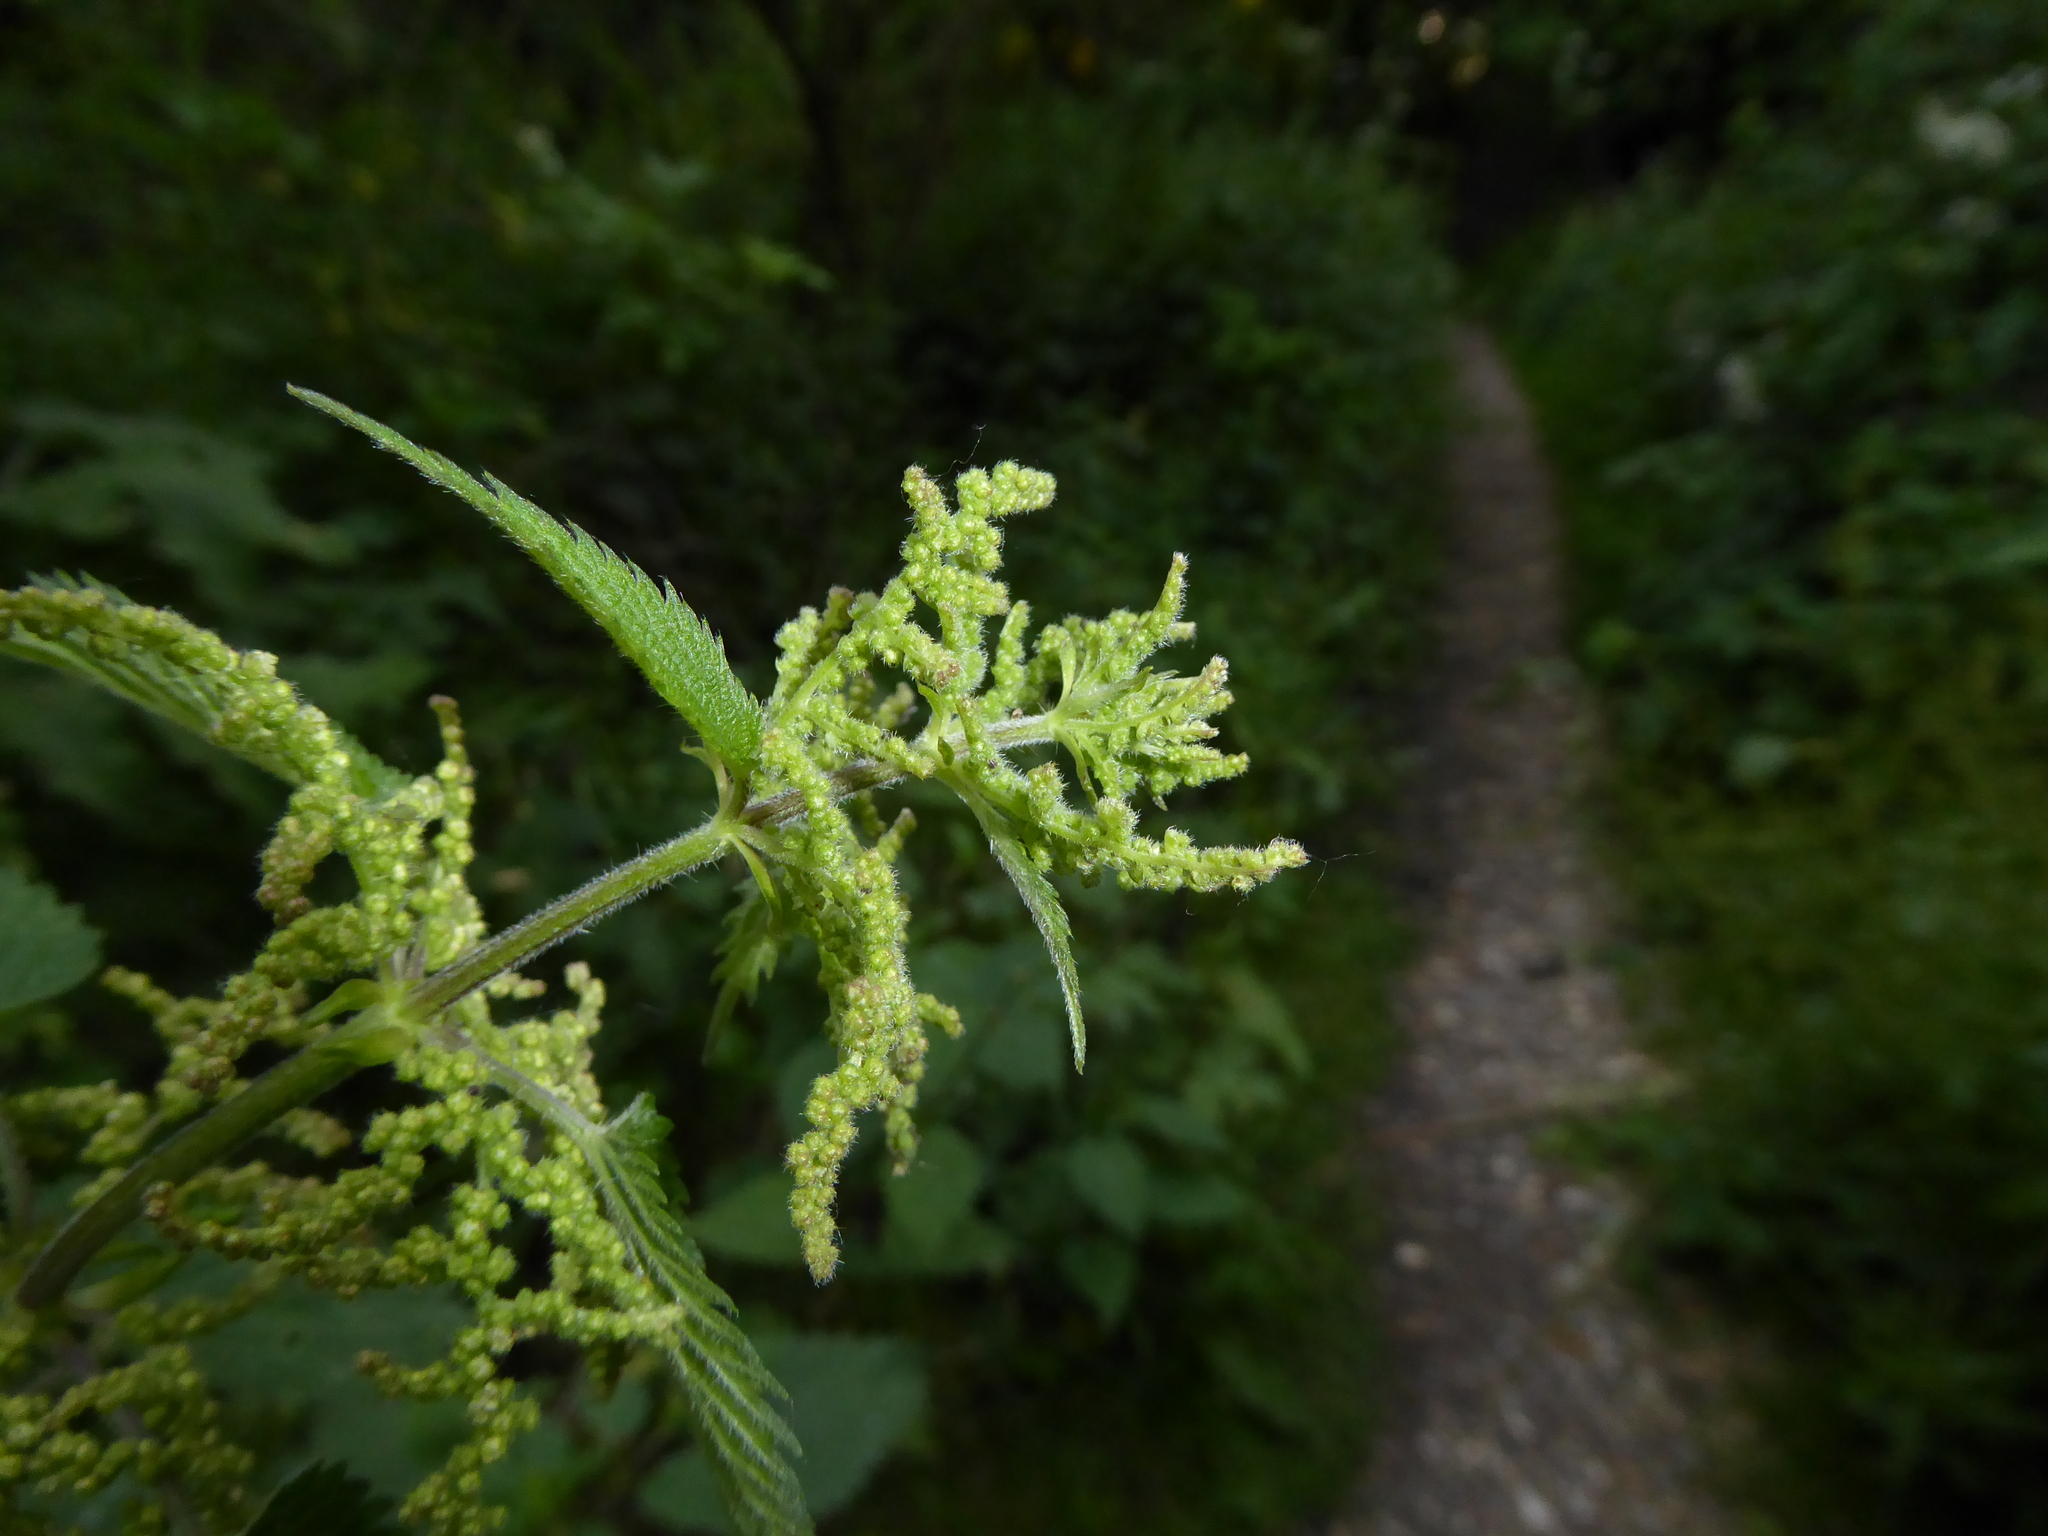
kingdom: Plantae
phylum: Tracheophyta
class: Magnoliopsida
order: Rosales
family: Urticaceae
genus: Urtica
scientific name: Urtica dioica
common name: Common nettle
